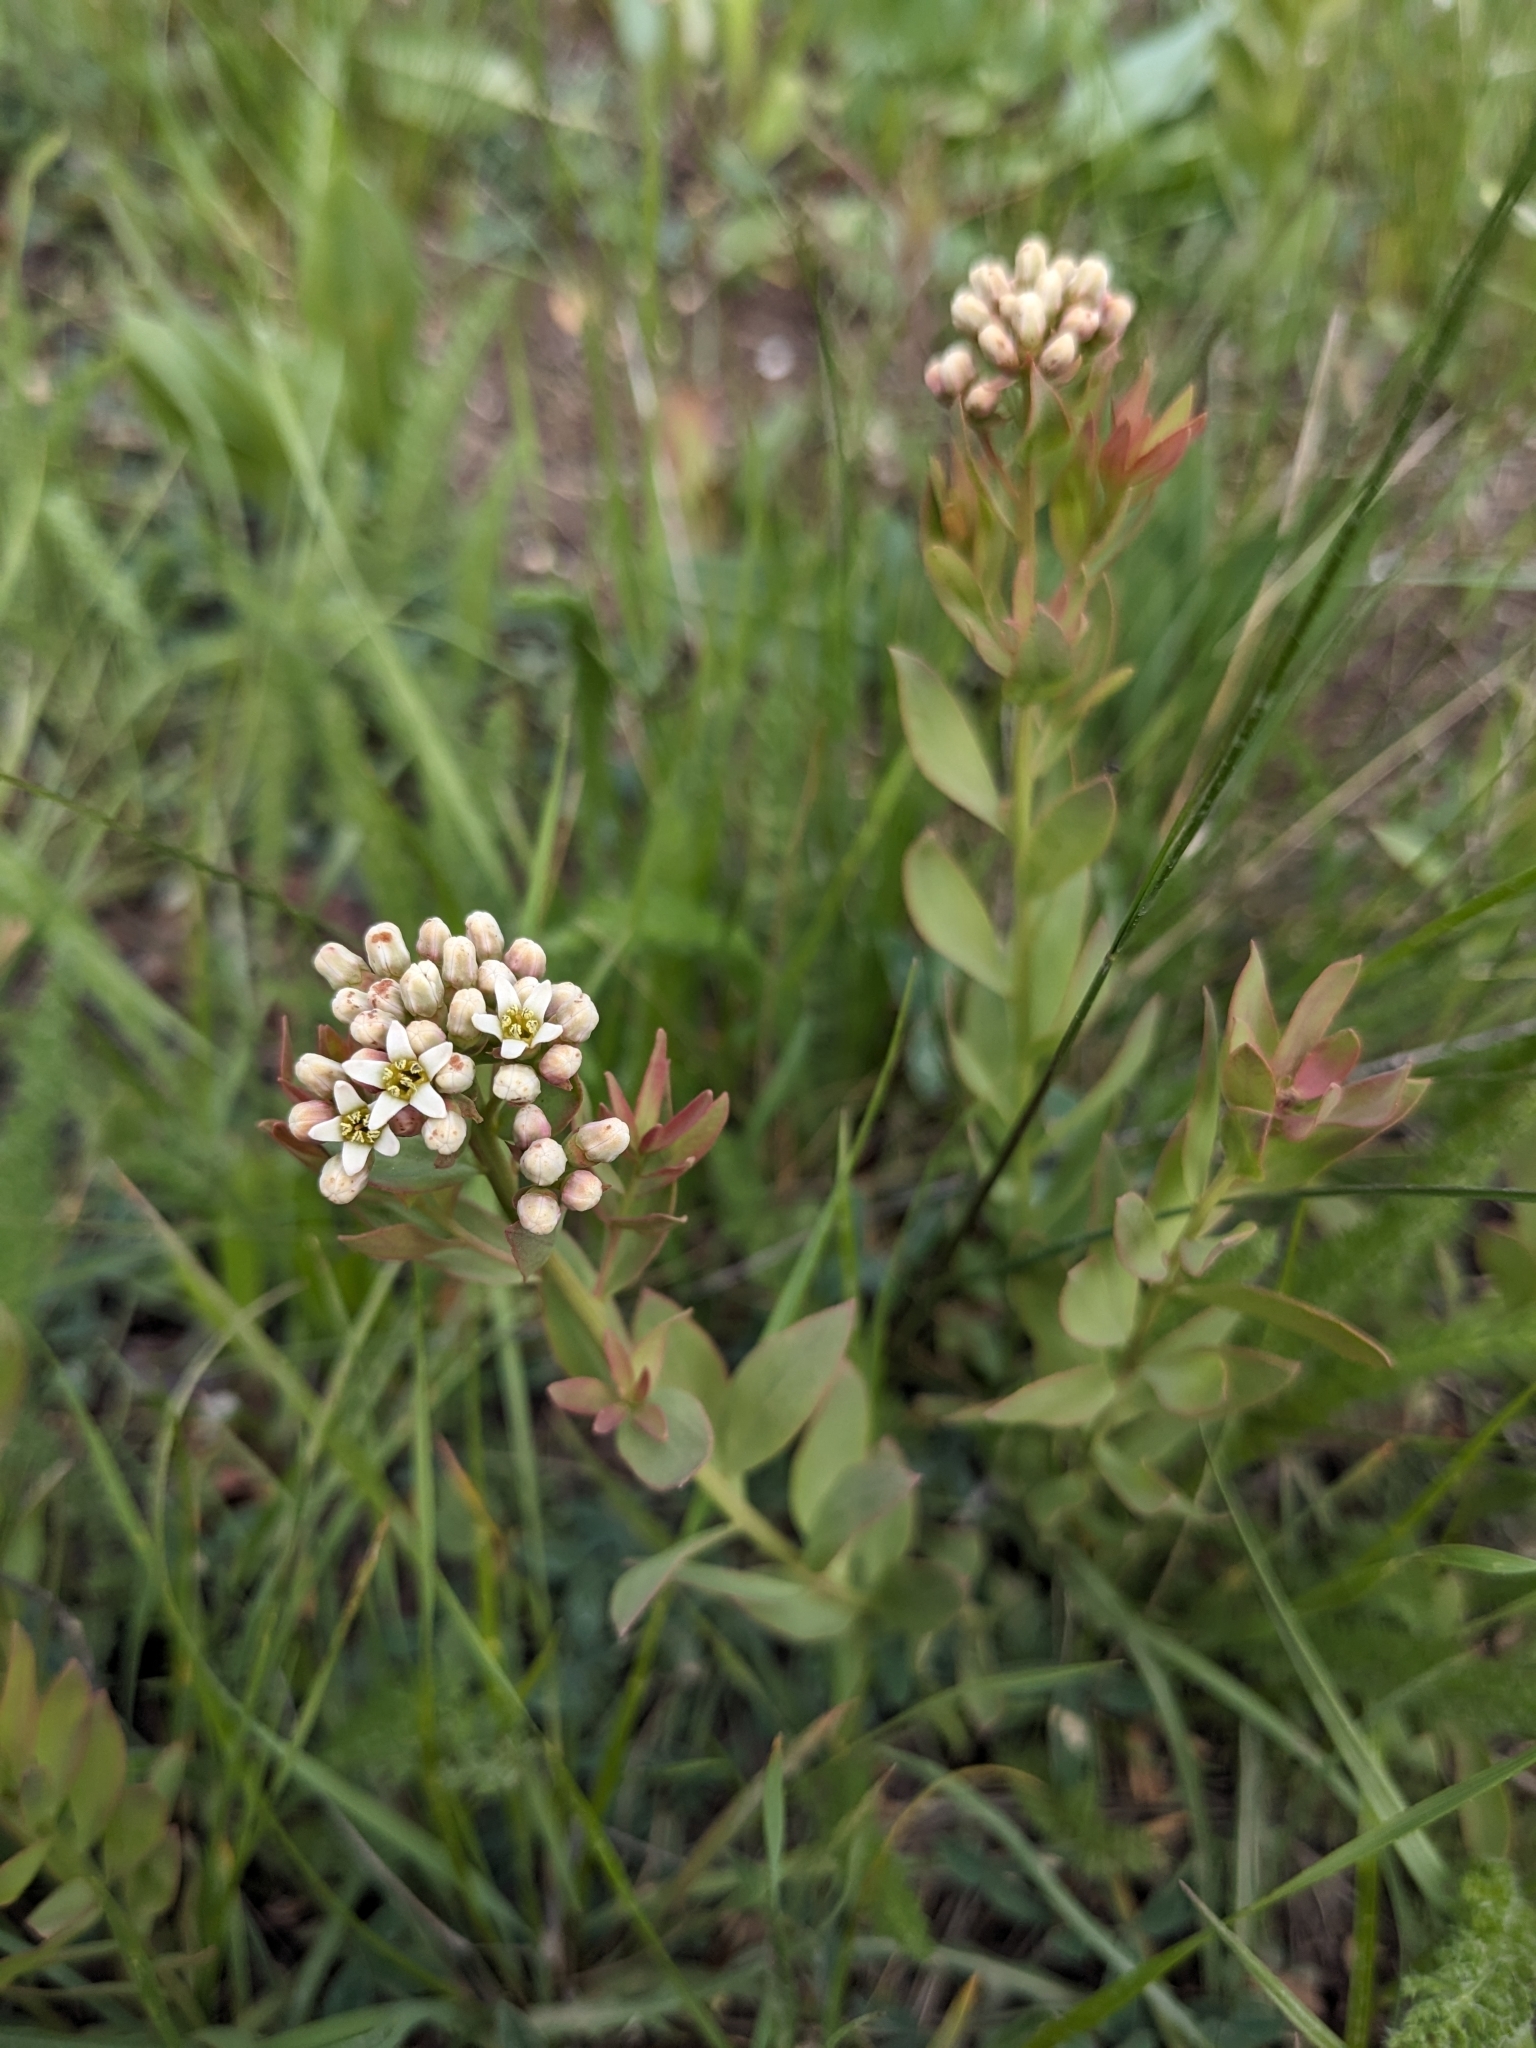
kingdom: Plantae
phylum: Tracheophyta
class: Magnoliopsida
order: Santalales
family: Comandraceae
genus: Comandra
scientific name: Comandra umbellata
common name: Bastard toadflax
